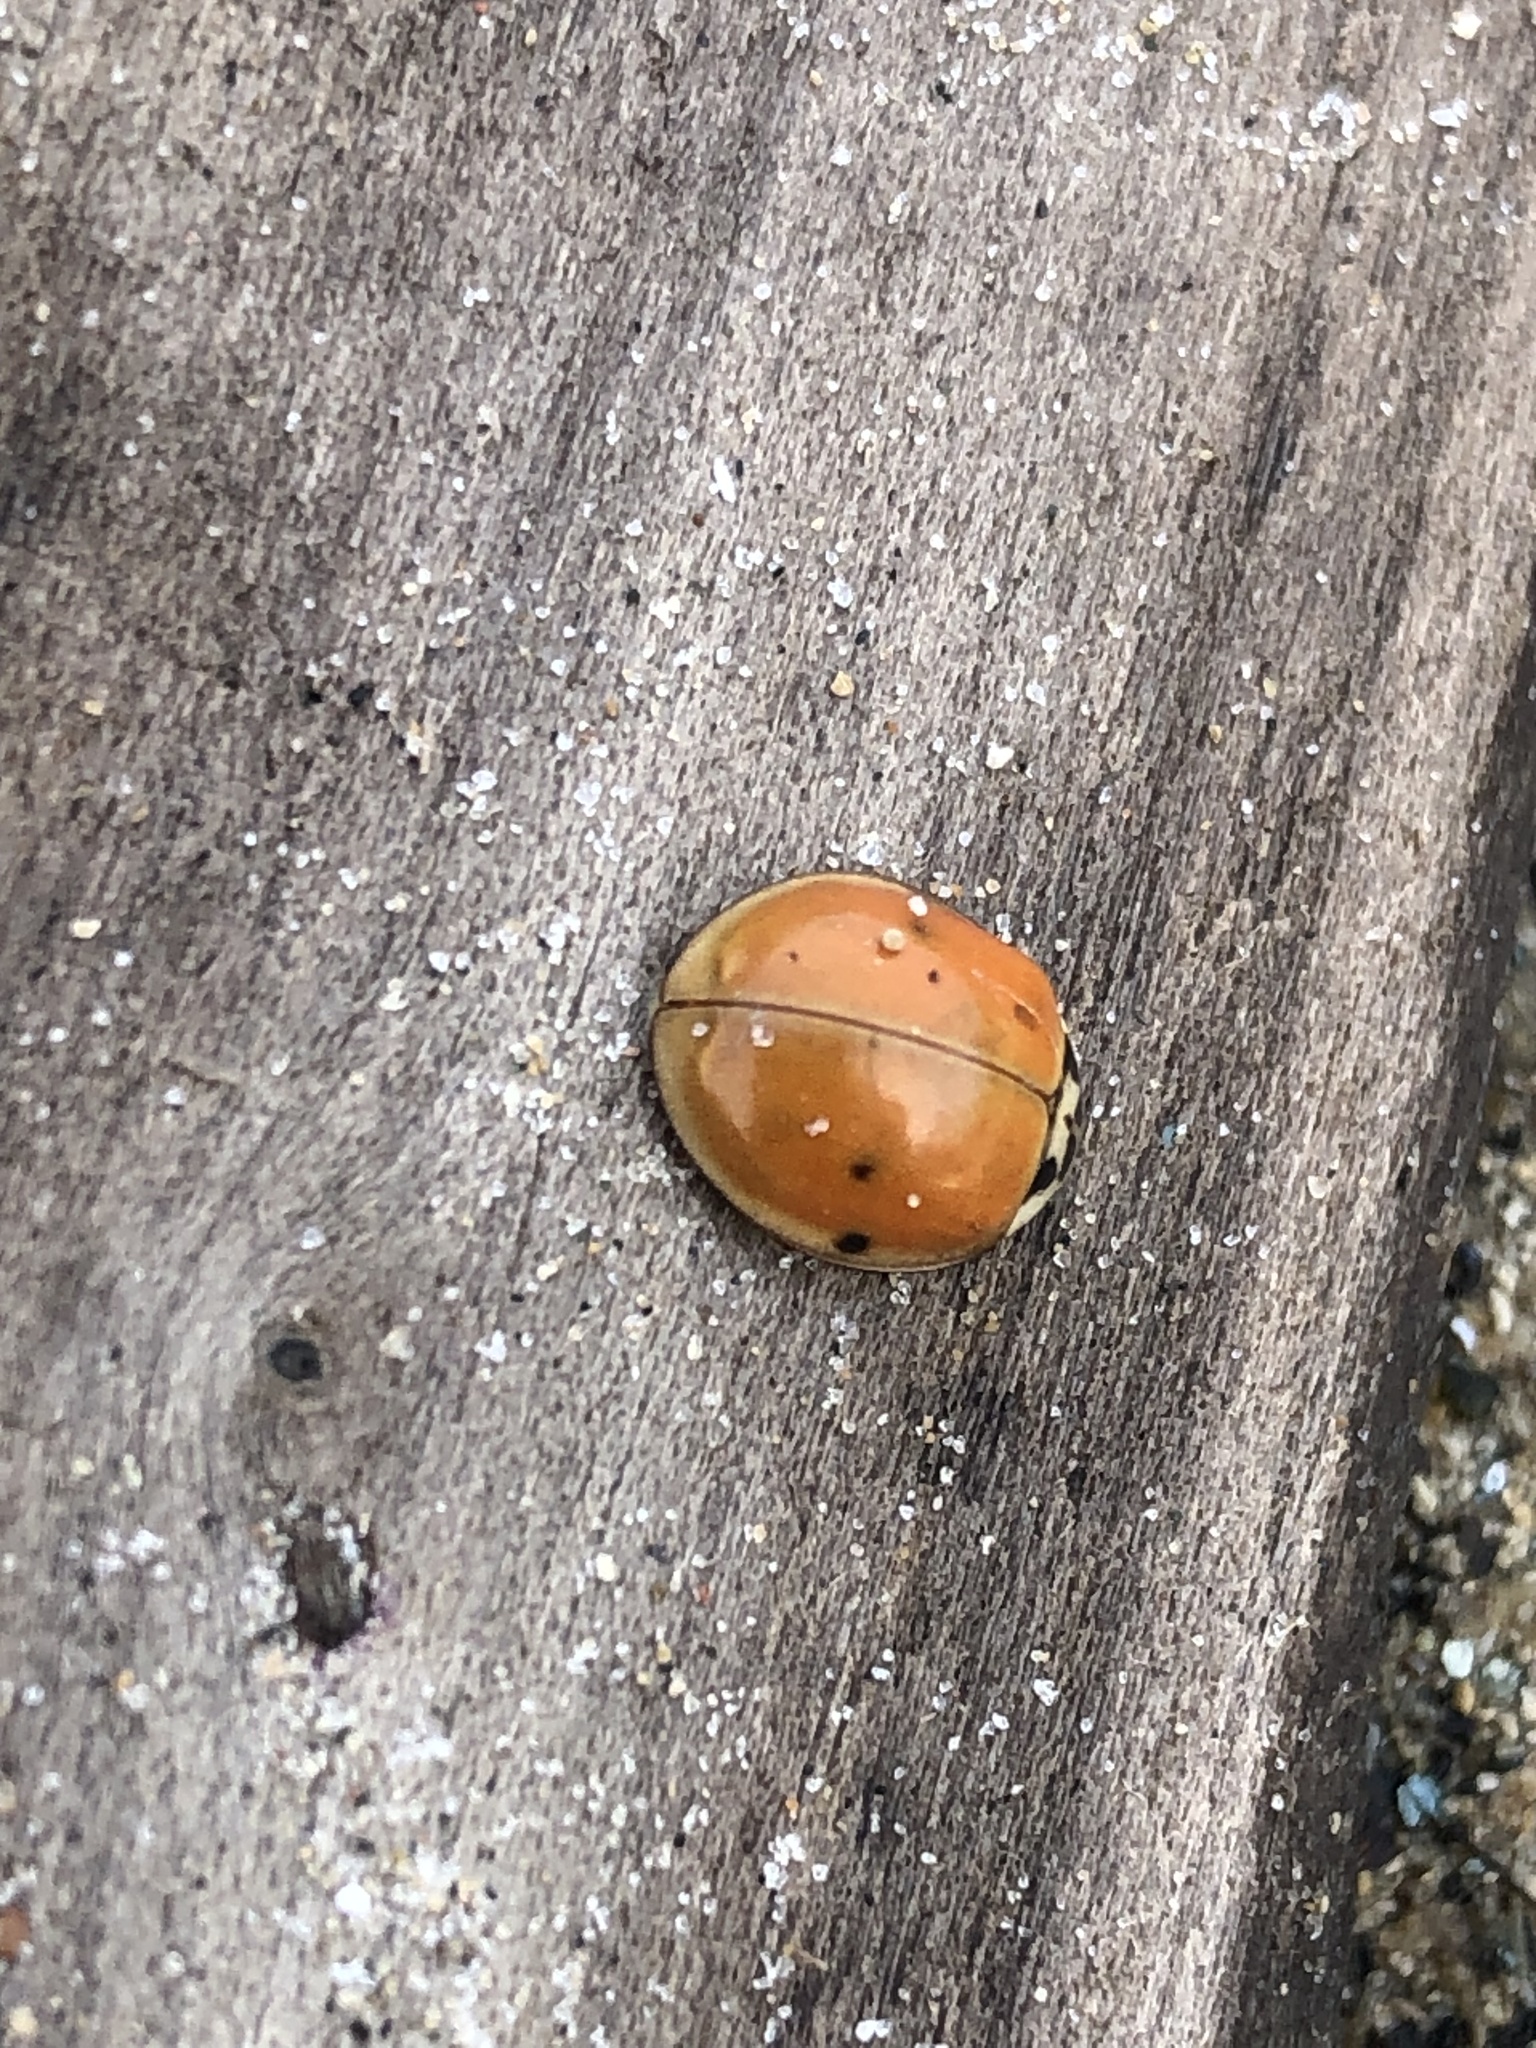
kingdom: Animalia
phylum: Arthropoda
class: Insecta
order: Coleoptera
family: Coccinellidae
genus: Harmonia
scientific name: Harmonia axyridis
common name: Harlequin ladybird
